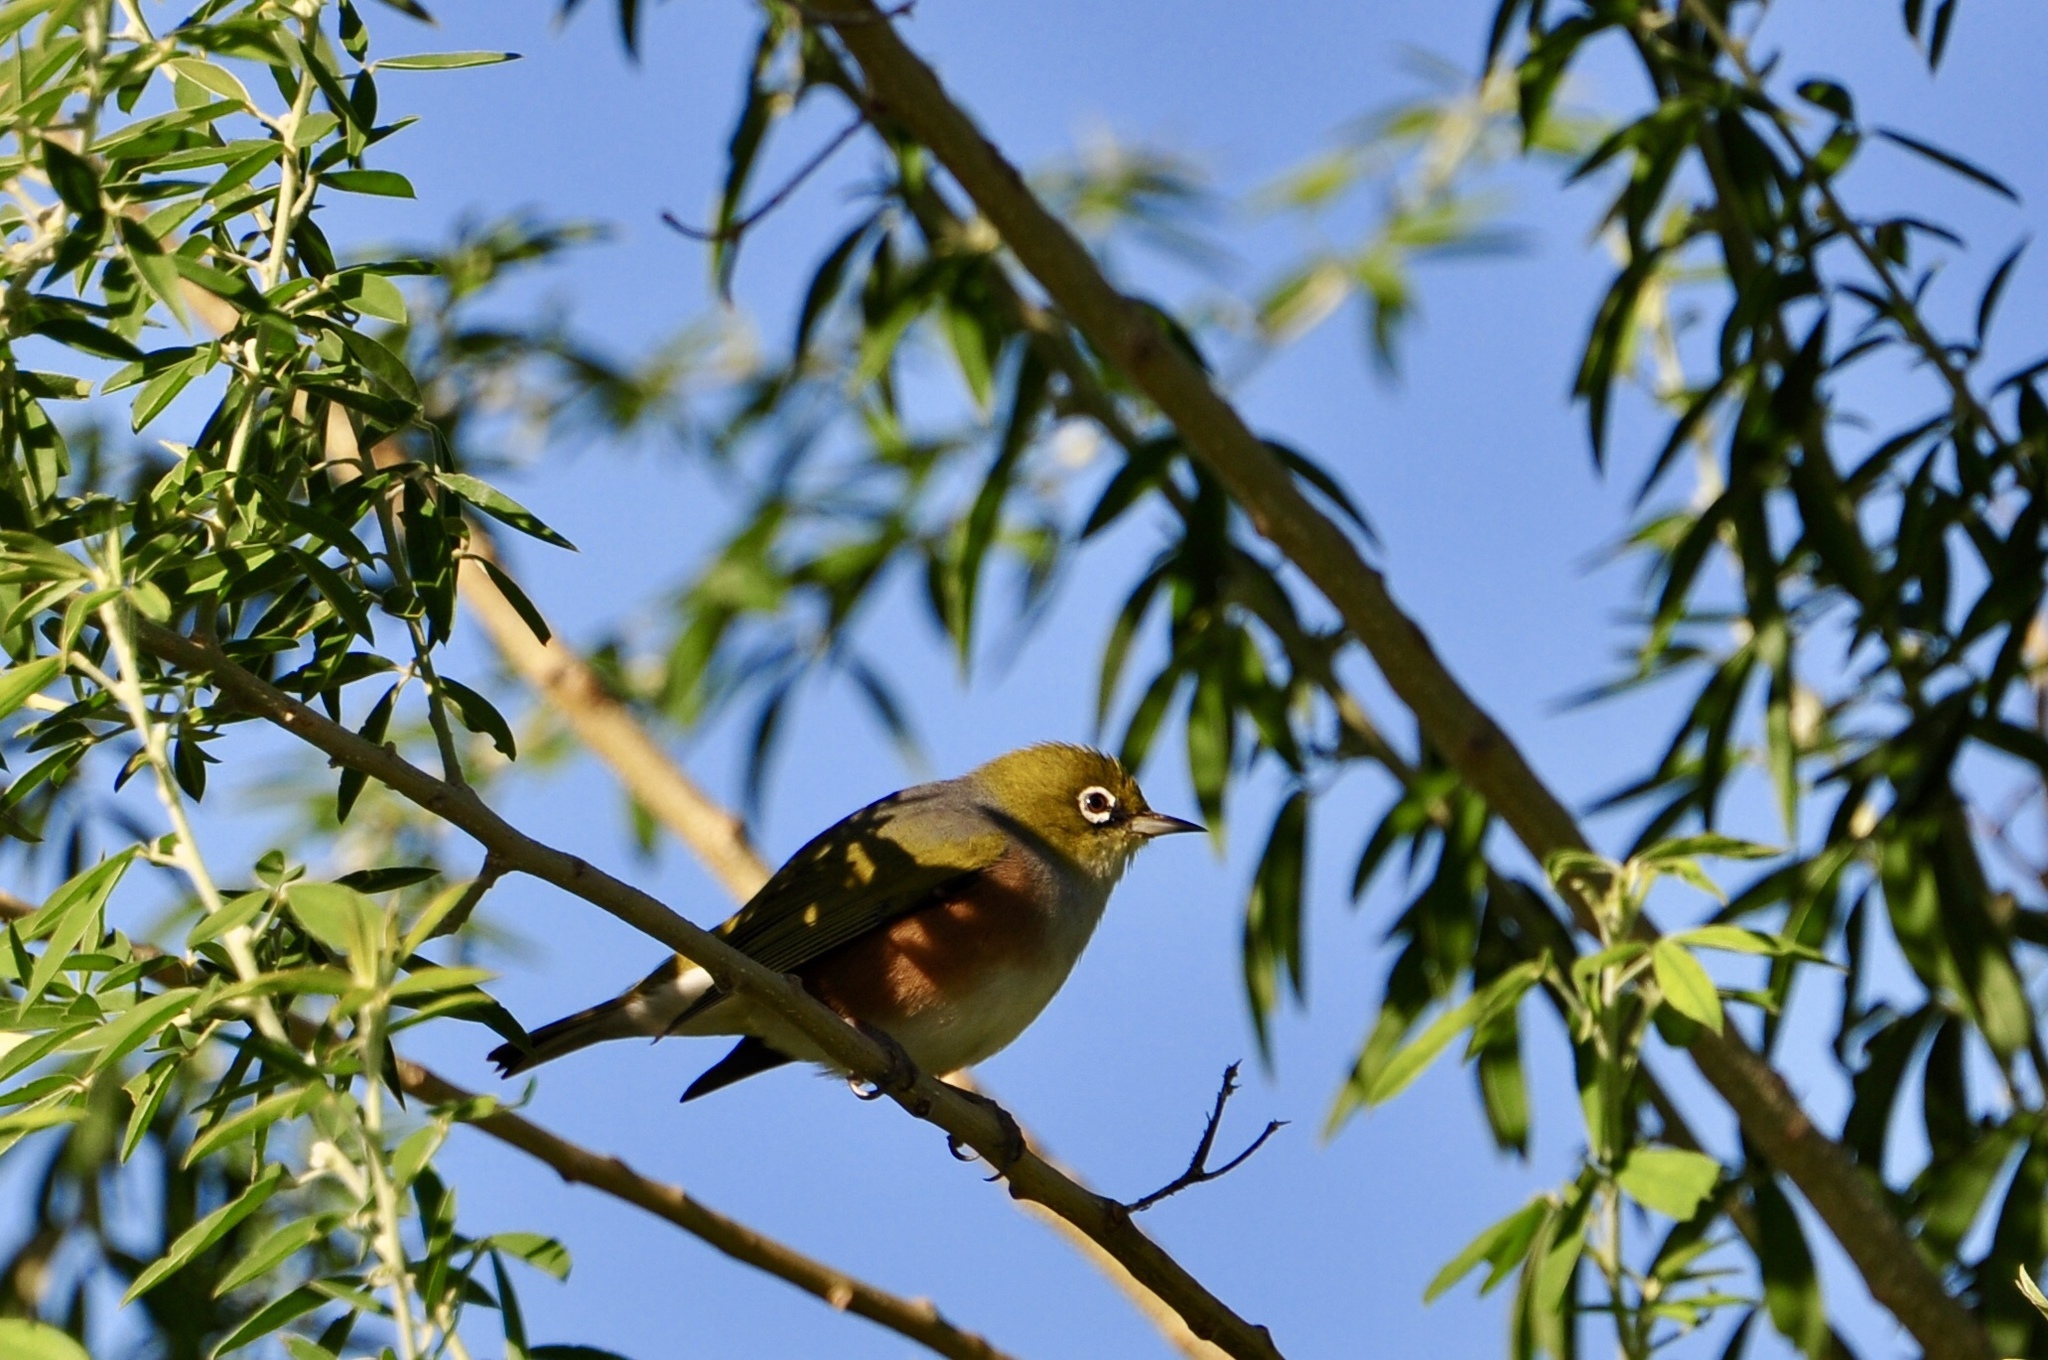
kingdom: Animalia
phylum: Chordata
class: Aves
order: Passeriformes
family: Zosteropidae
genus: Zosterops
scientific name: Zosterops lateralis
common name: Silvereye
